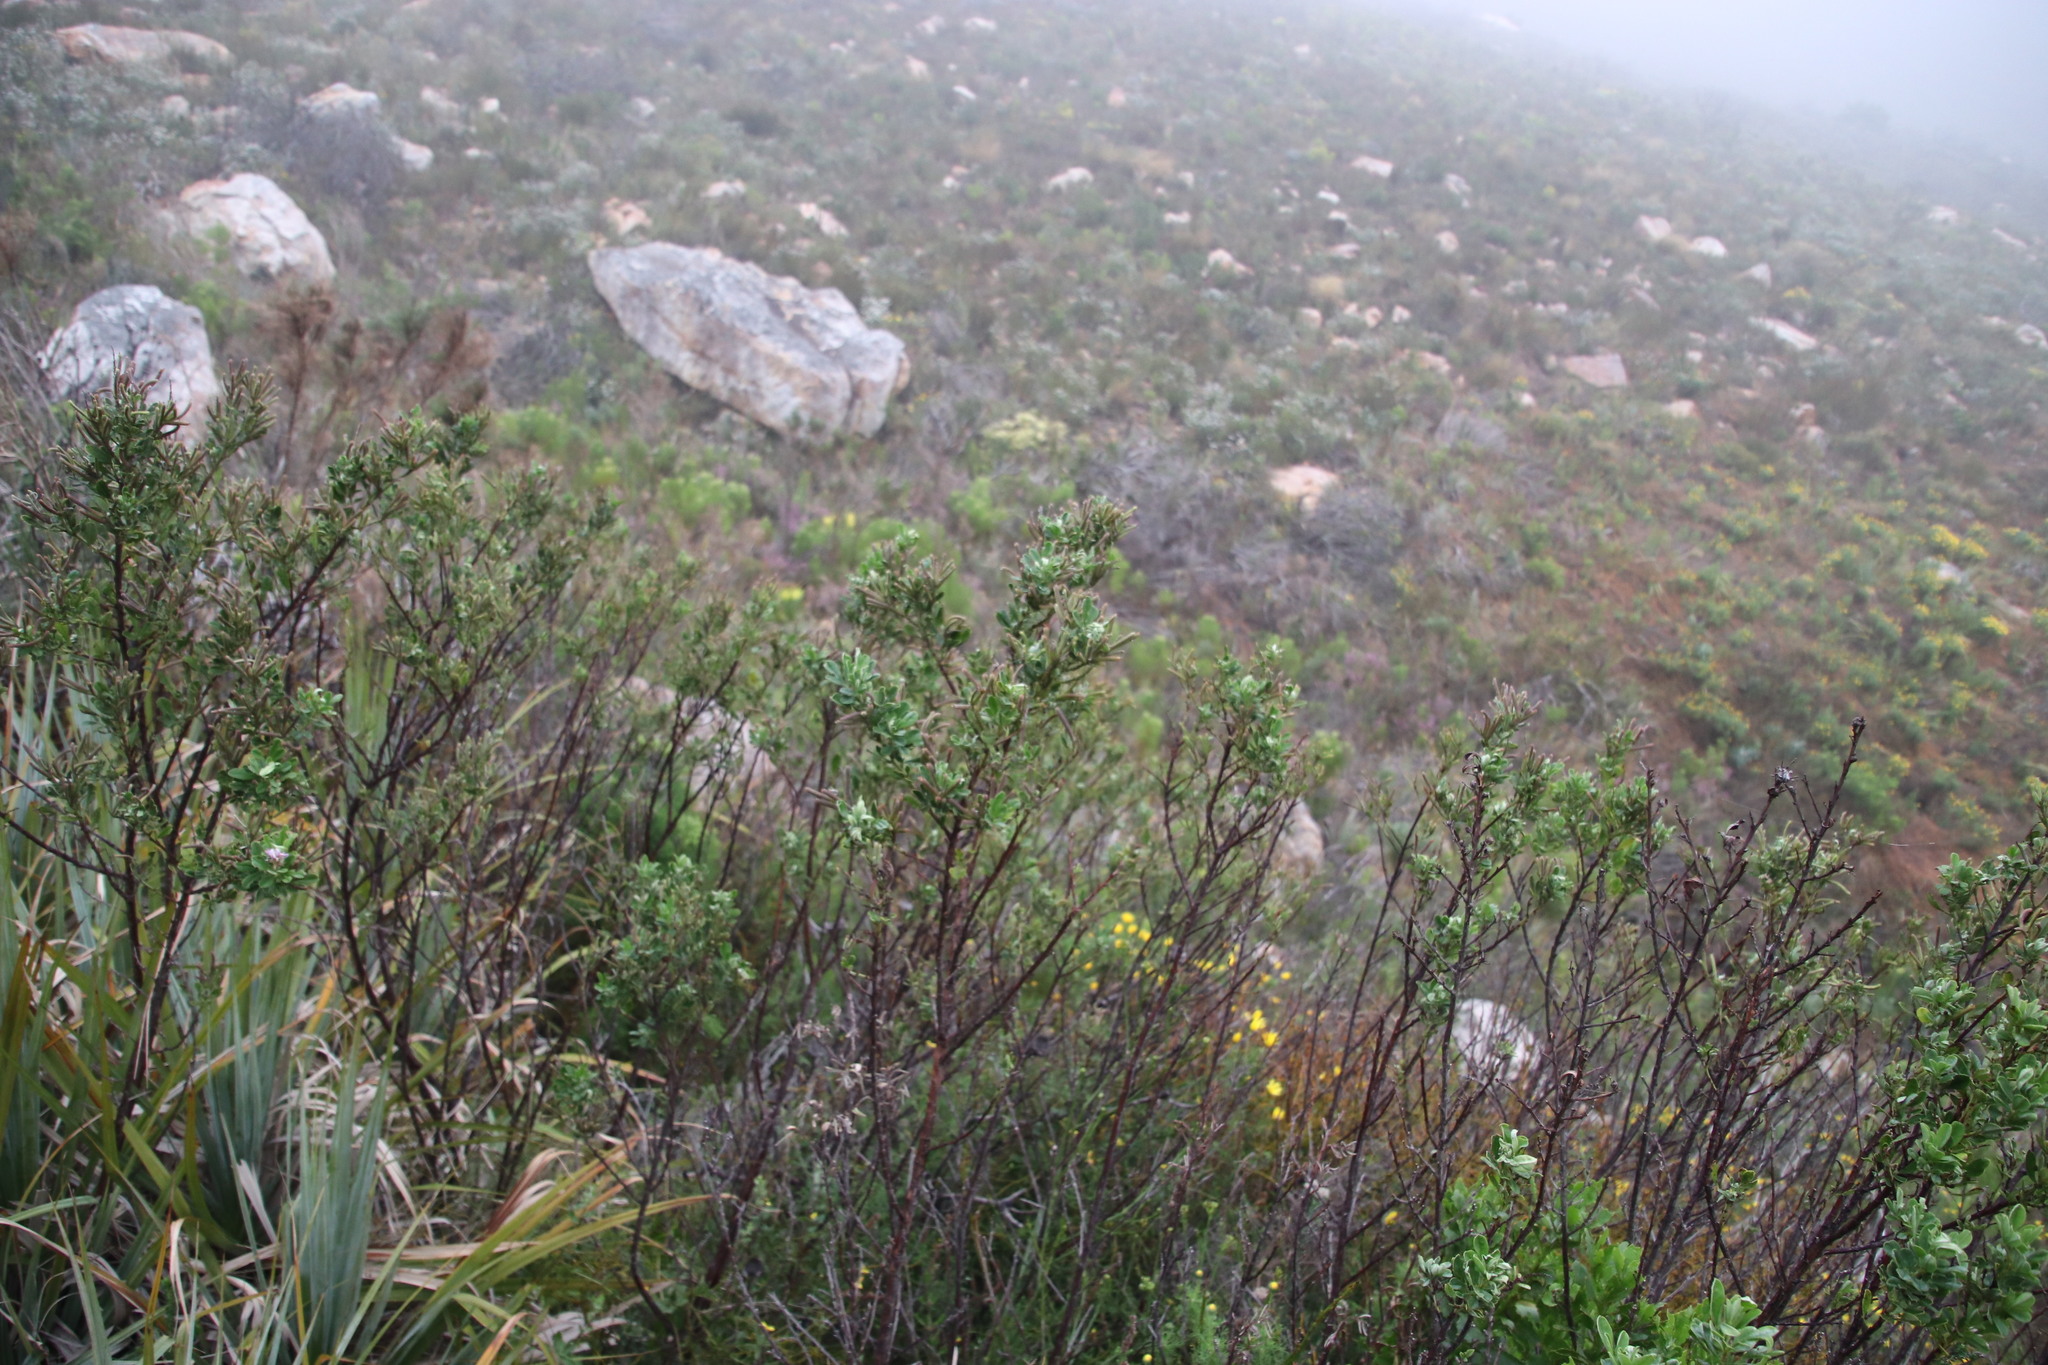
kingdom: Plantae
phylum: Tracheophyta
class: Magnoliopsida
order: Fabales
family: Fabaceae
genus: Indigofera
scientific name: Indigofera cytisoides
